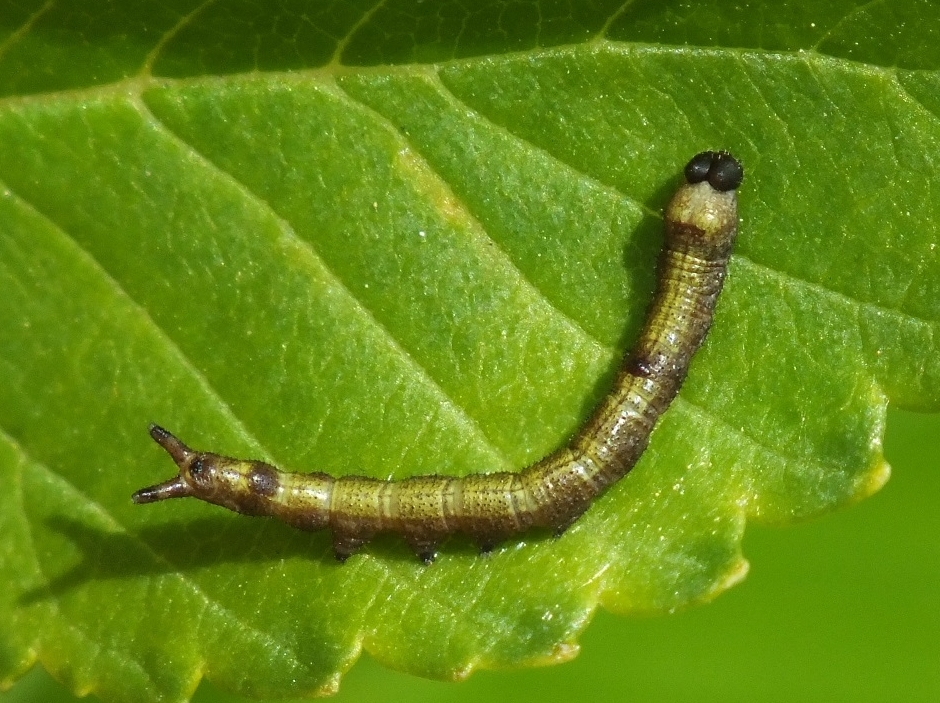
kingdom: Animalia
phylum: Arthropoda
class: Insecta
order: Lepidoptera
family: Notodontidae
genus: Dicranura
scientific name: Dicranura ulmi
